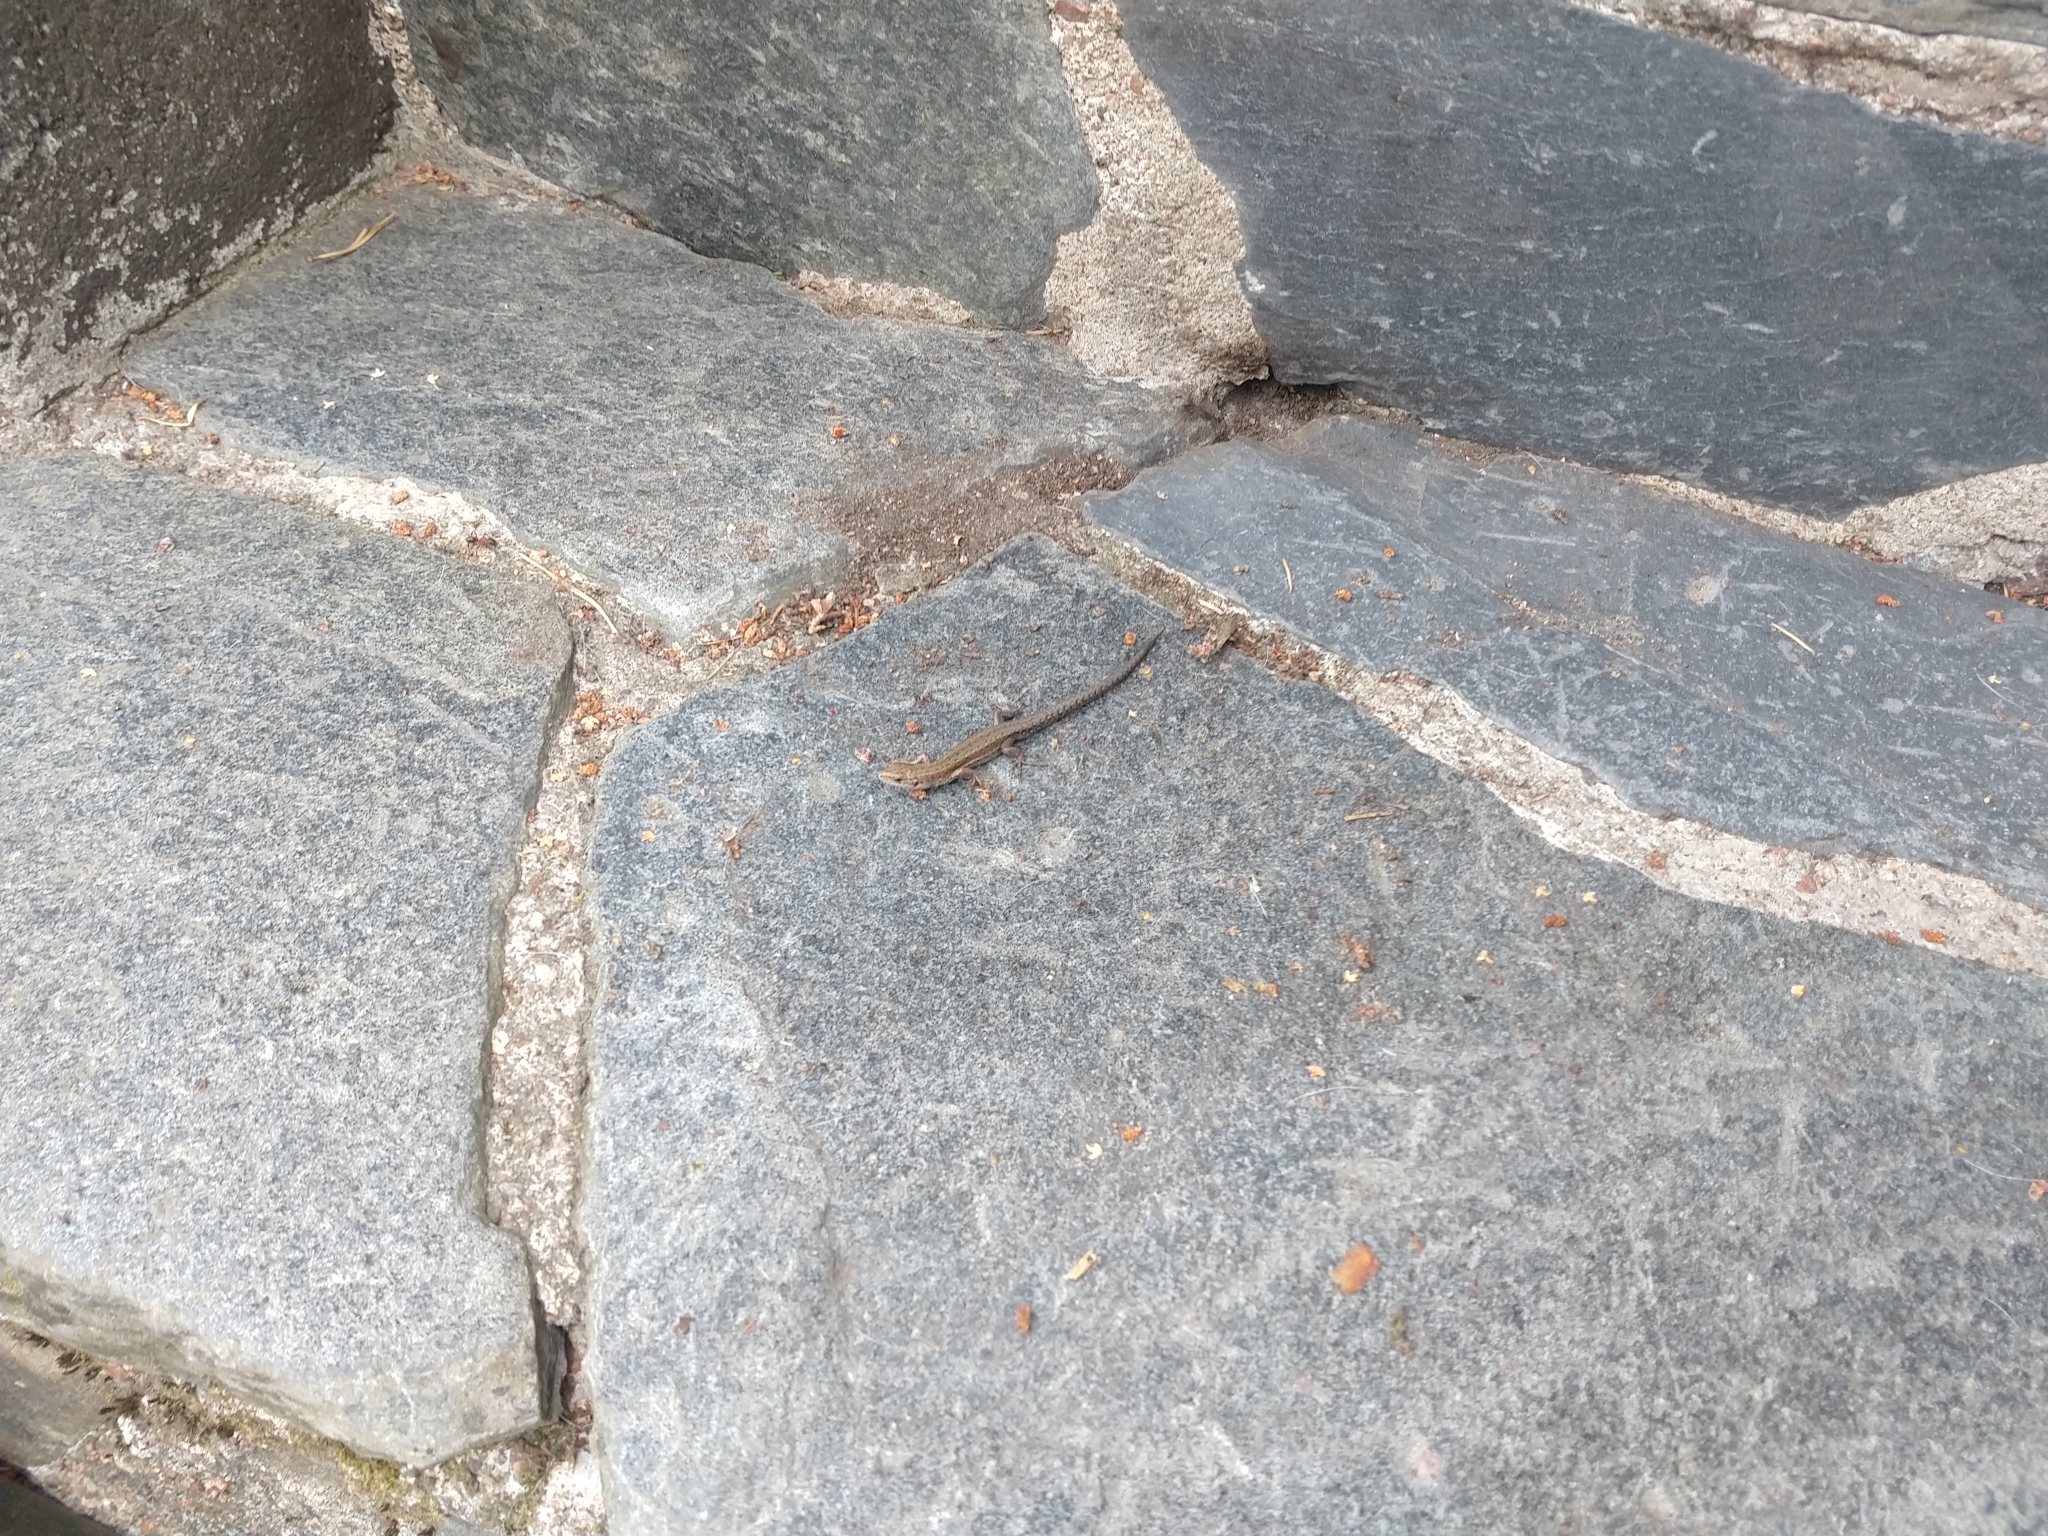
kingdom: Animalia
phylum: Chordata
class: Squamata
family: Lacertidae
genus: Zootoca
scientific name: Zootoca vivipara
